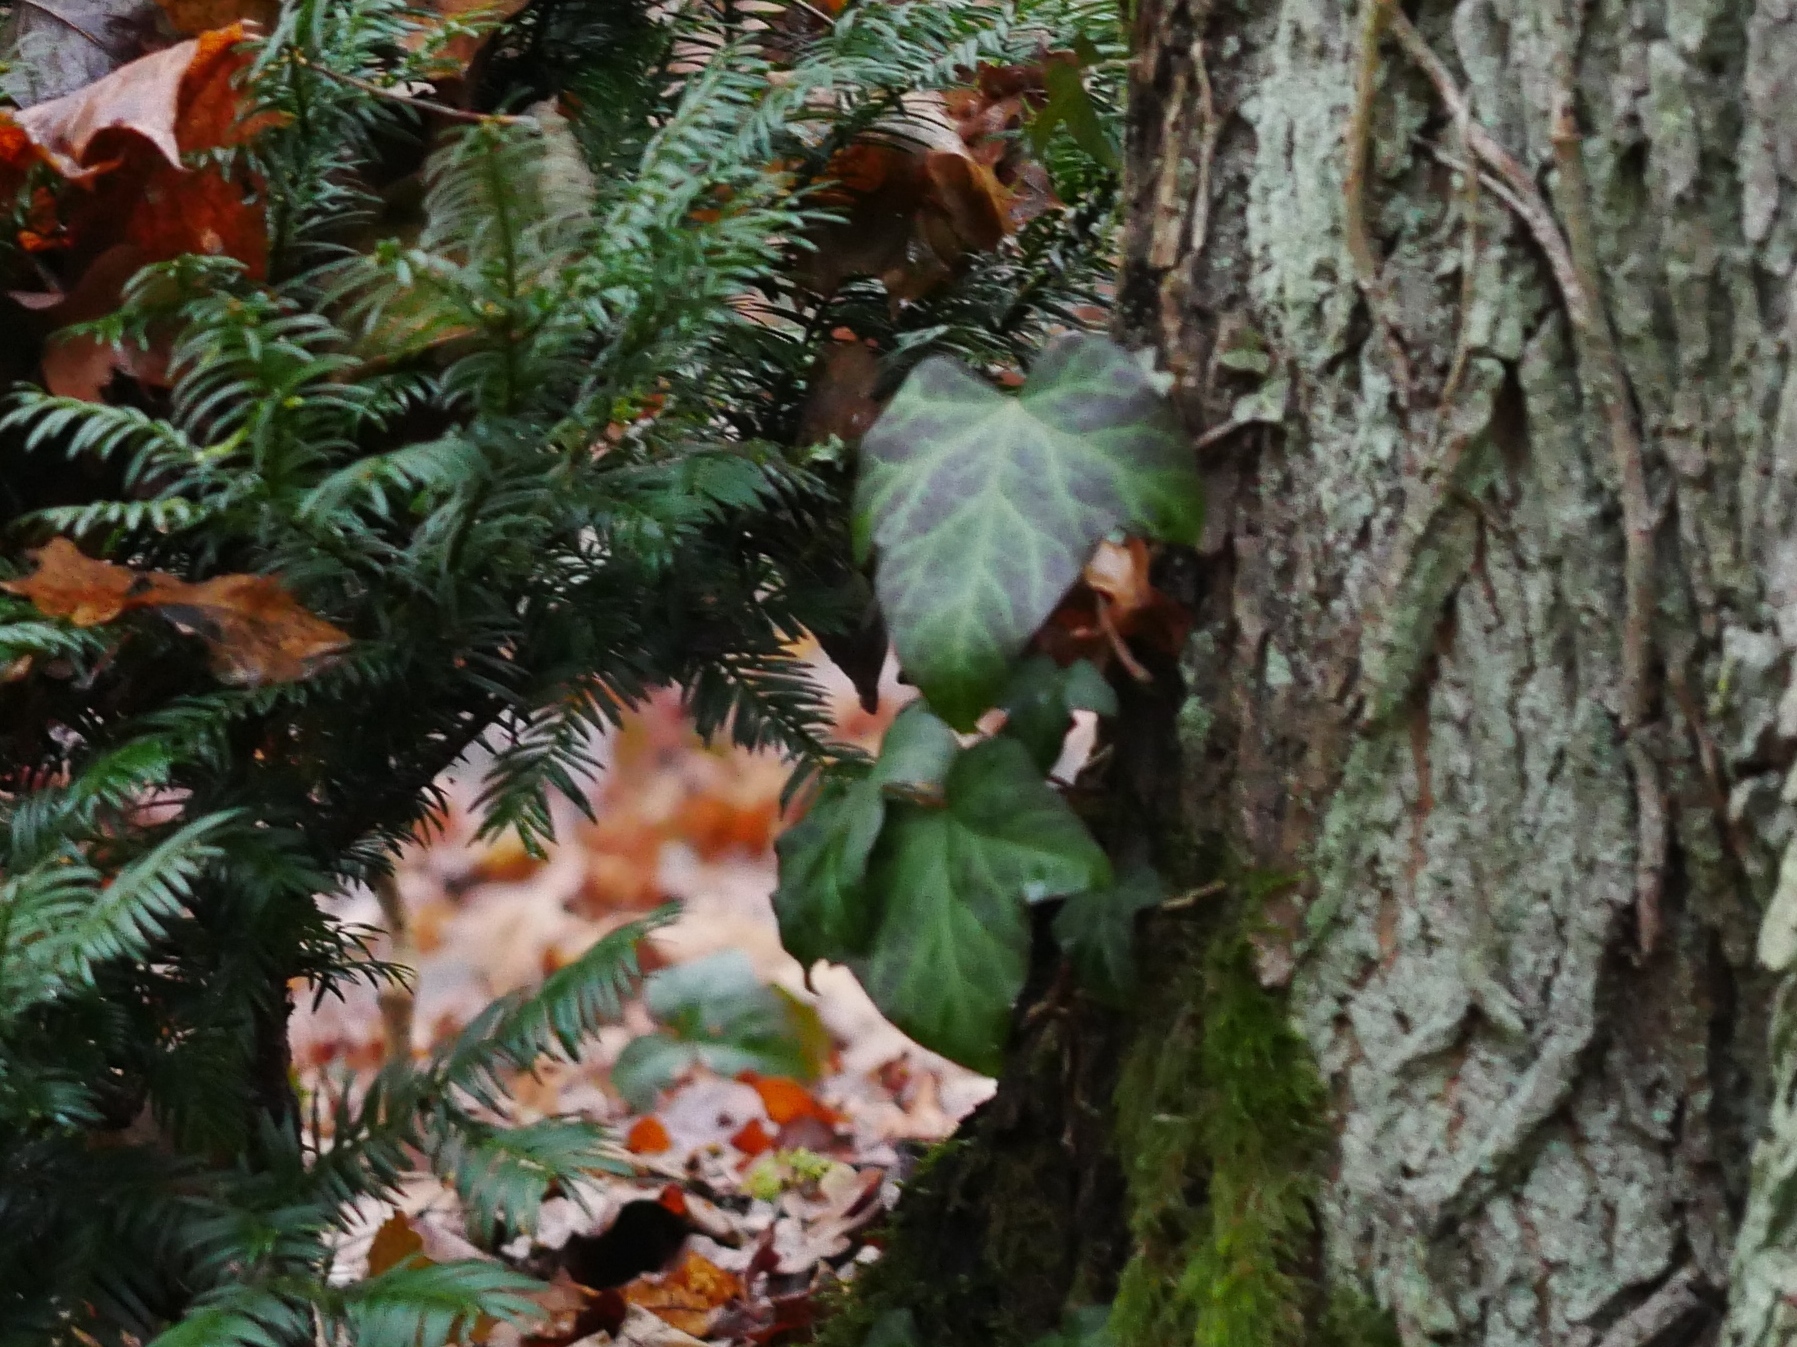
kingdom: Plantae
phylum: Tracheophyta
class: Magnoliopsida
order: Apiales
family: Araliaceae
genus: Hedera
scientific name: Hedera helix
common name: Ivy
